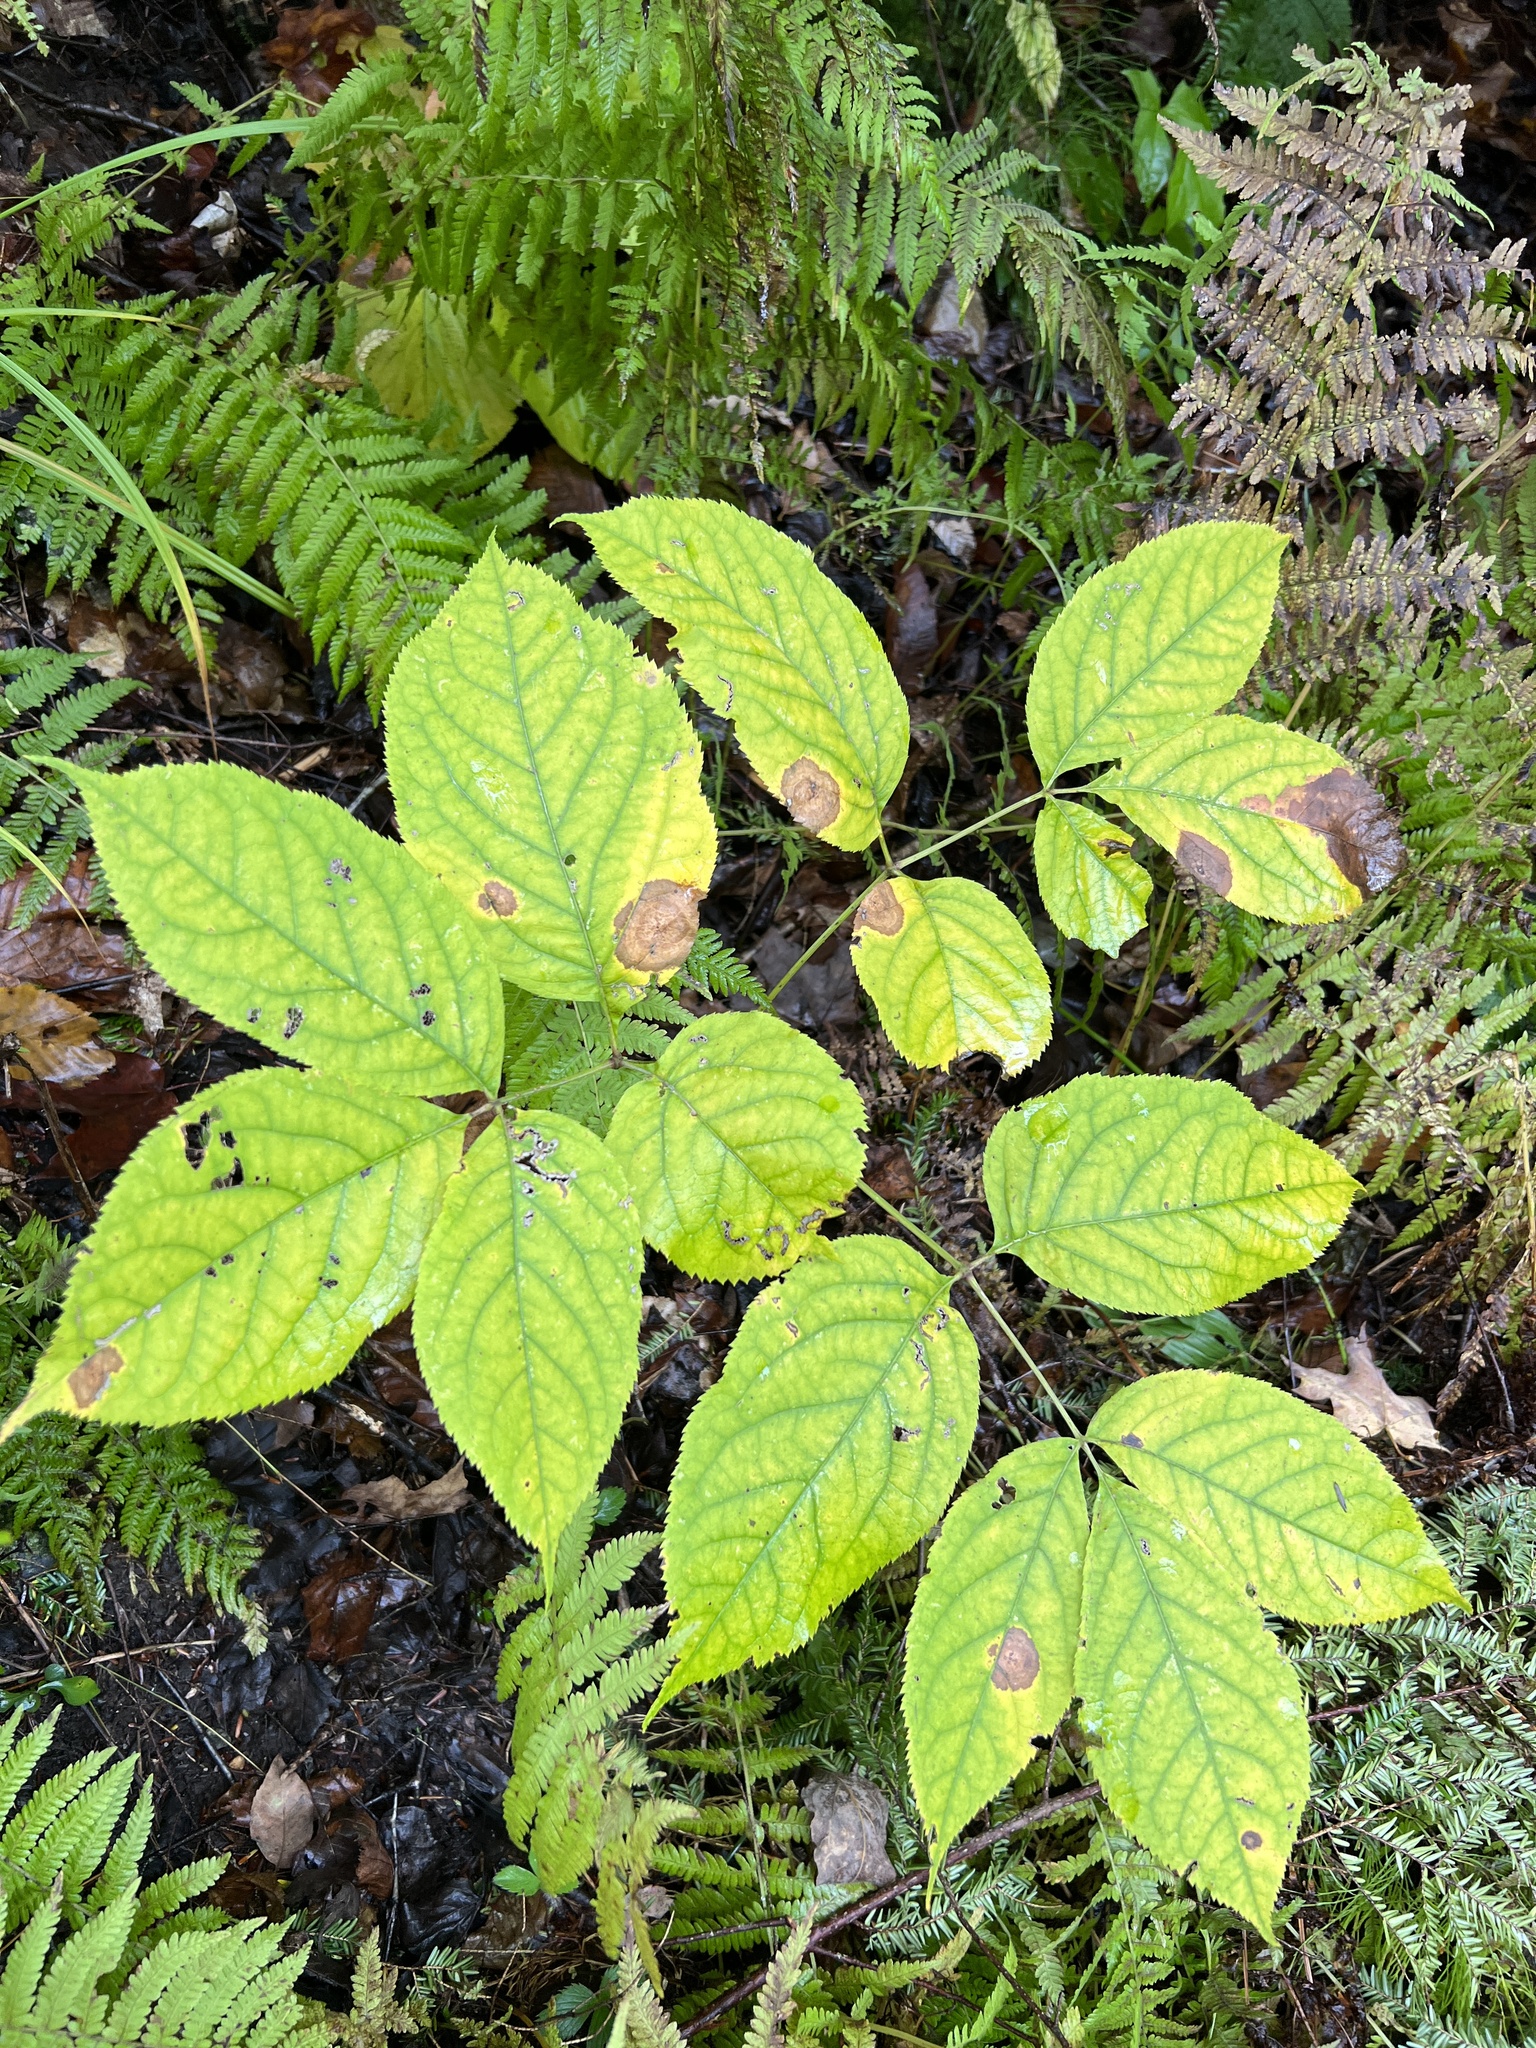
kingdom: Plantae
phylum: Tracheophyta
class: Magnoliopsida
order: Apiales
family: Araliaceae
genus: Aralia
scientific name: Aralia nudicaulis
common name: Wild sarsaparilla
